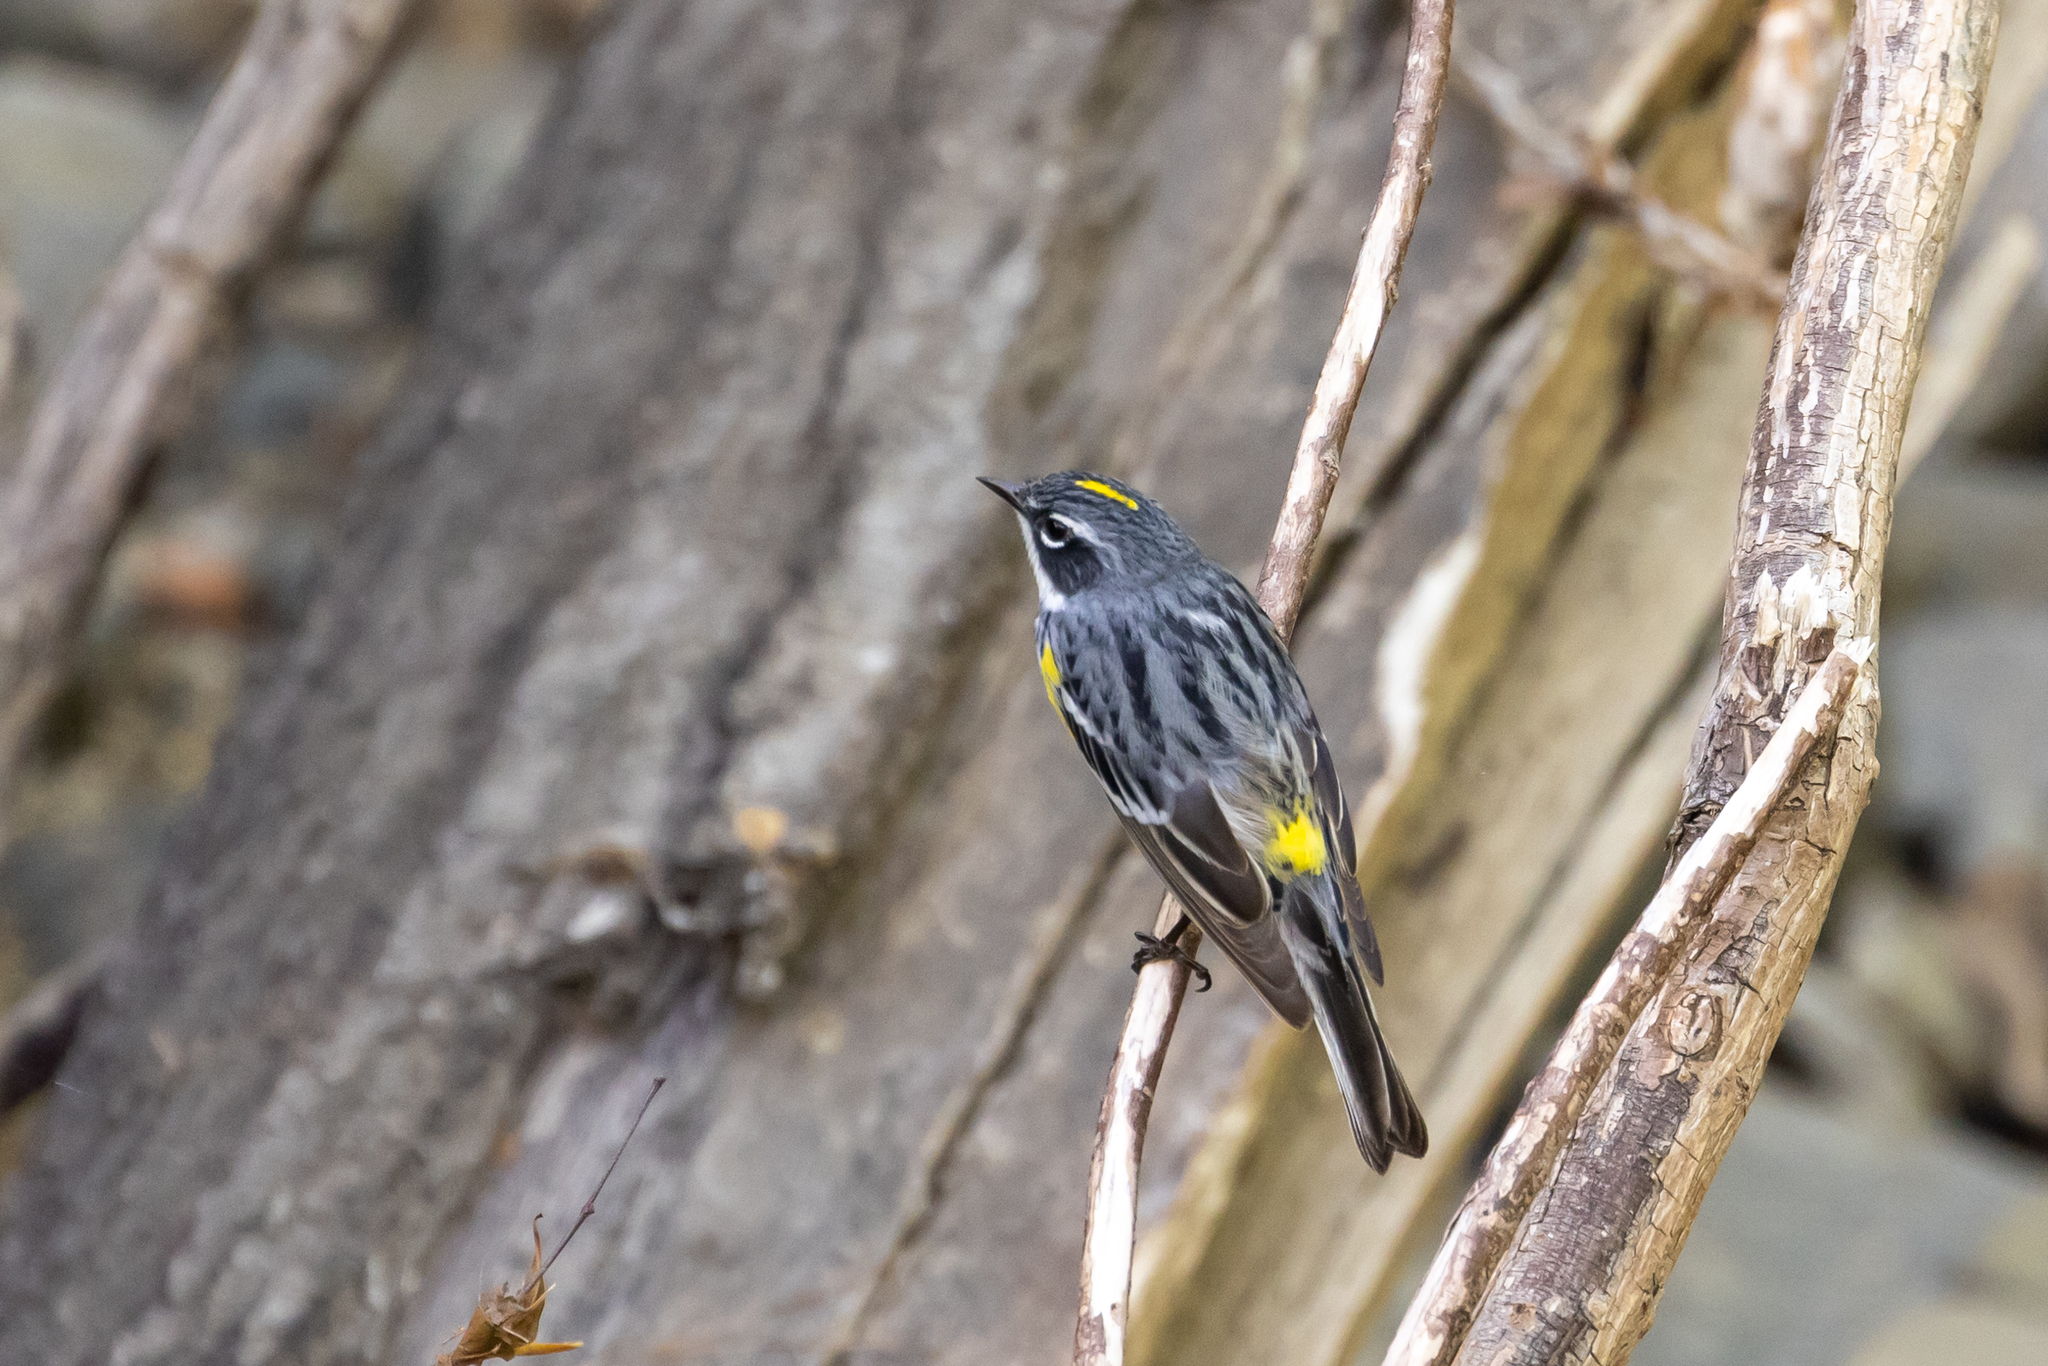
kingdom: Animalia
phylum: Chordata
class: Aves
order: Passeriformes
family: Parulidae
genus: Setophaga
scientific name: Setophaga coronata
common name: Myrtle warbler
